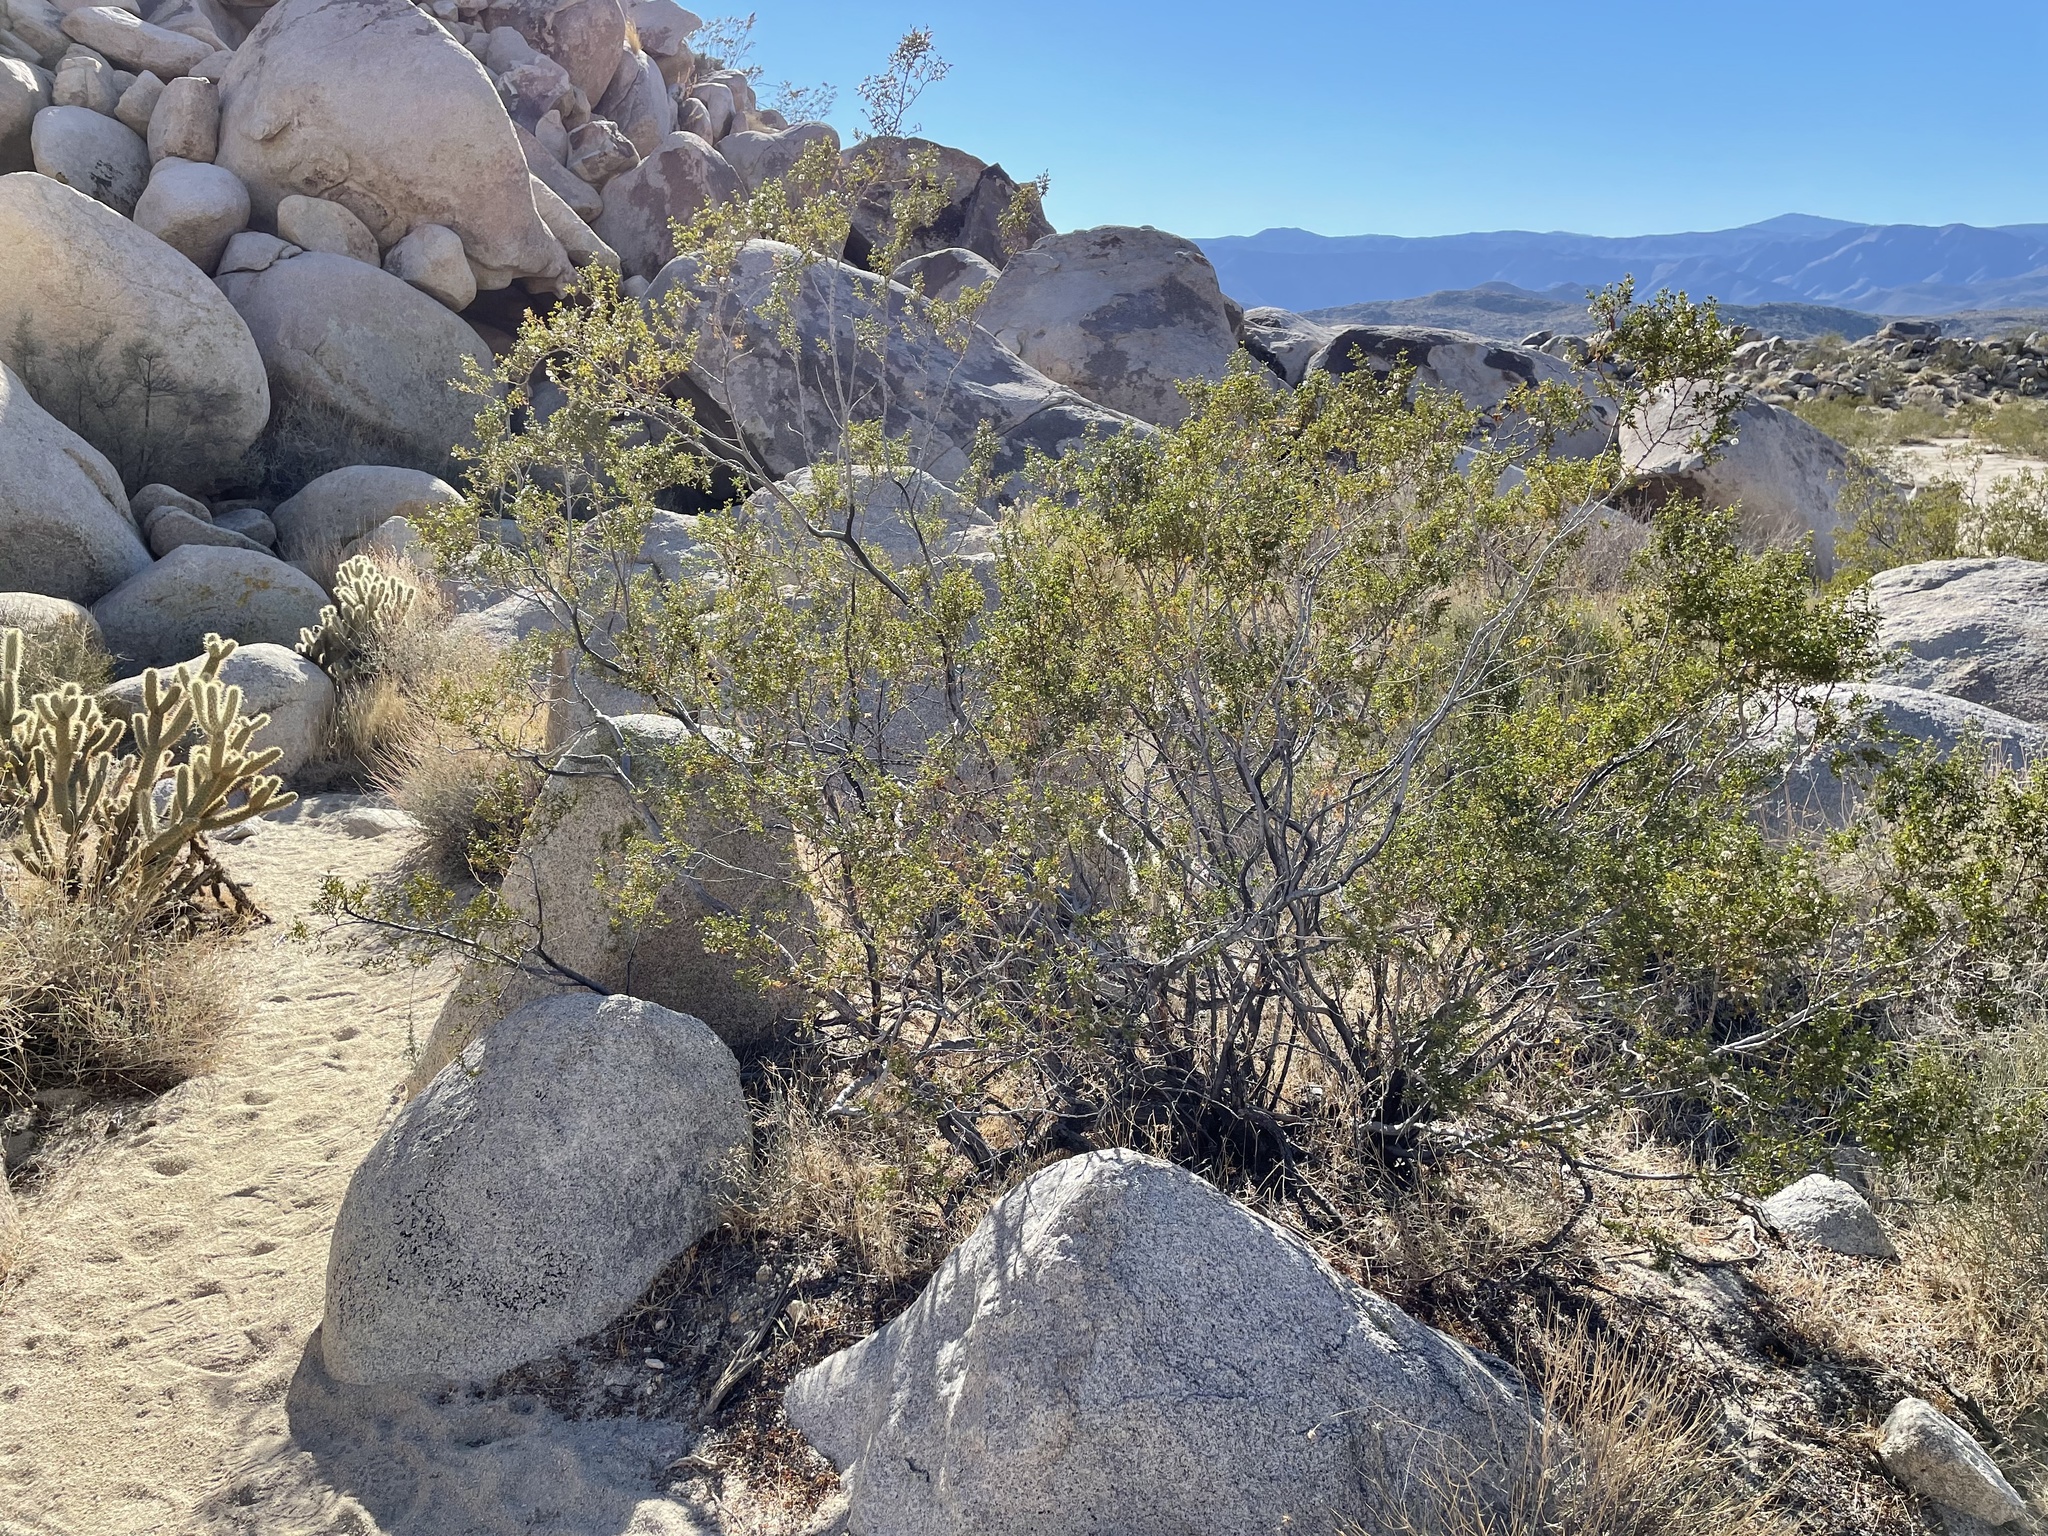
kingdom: Plantae
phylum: Tracheophyta
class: Magnoliopsida
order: Zygophyllales
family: Zygophyllaceae
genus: Larrea
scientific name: Larrea tridentata
